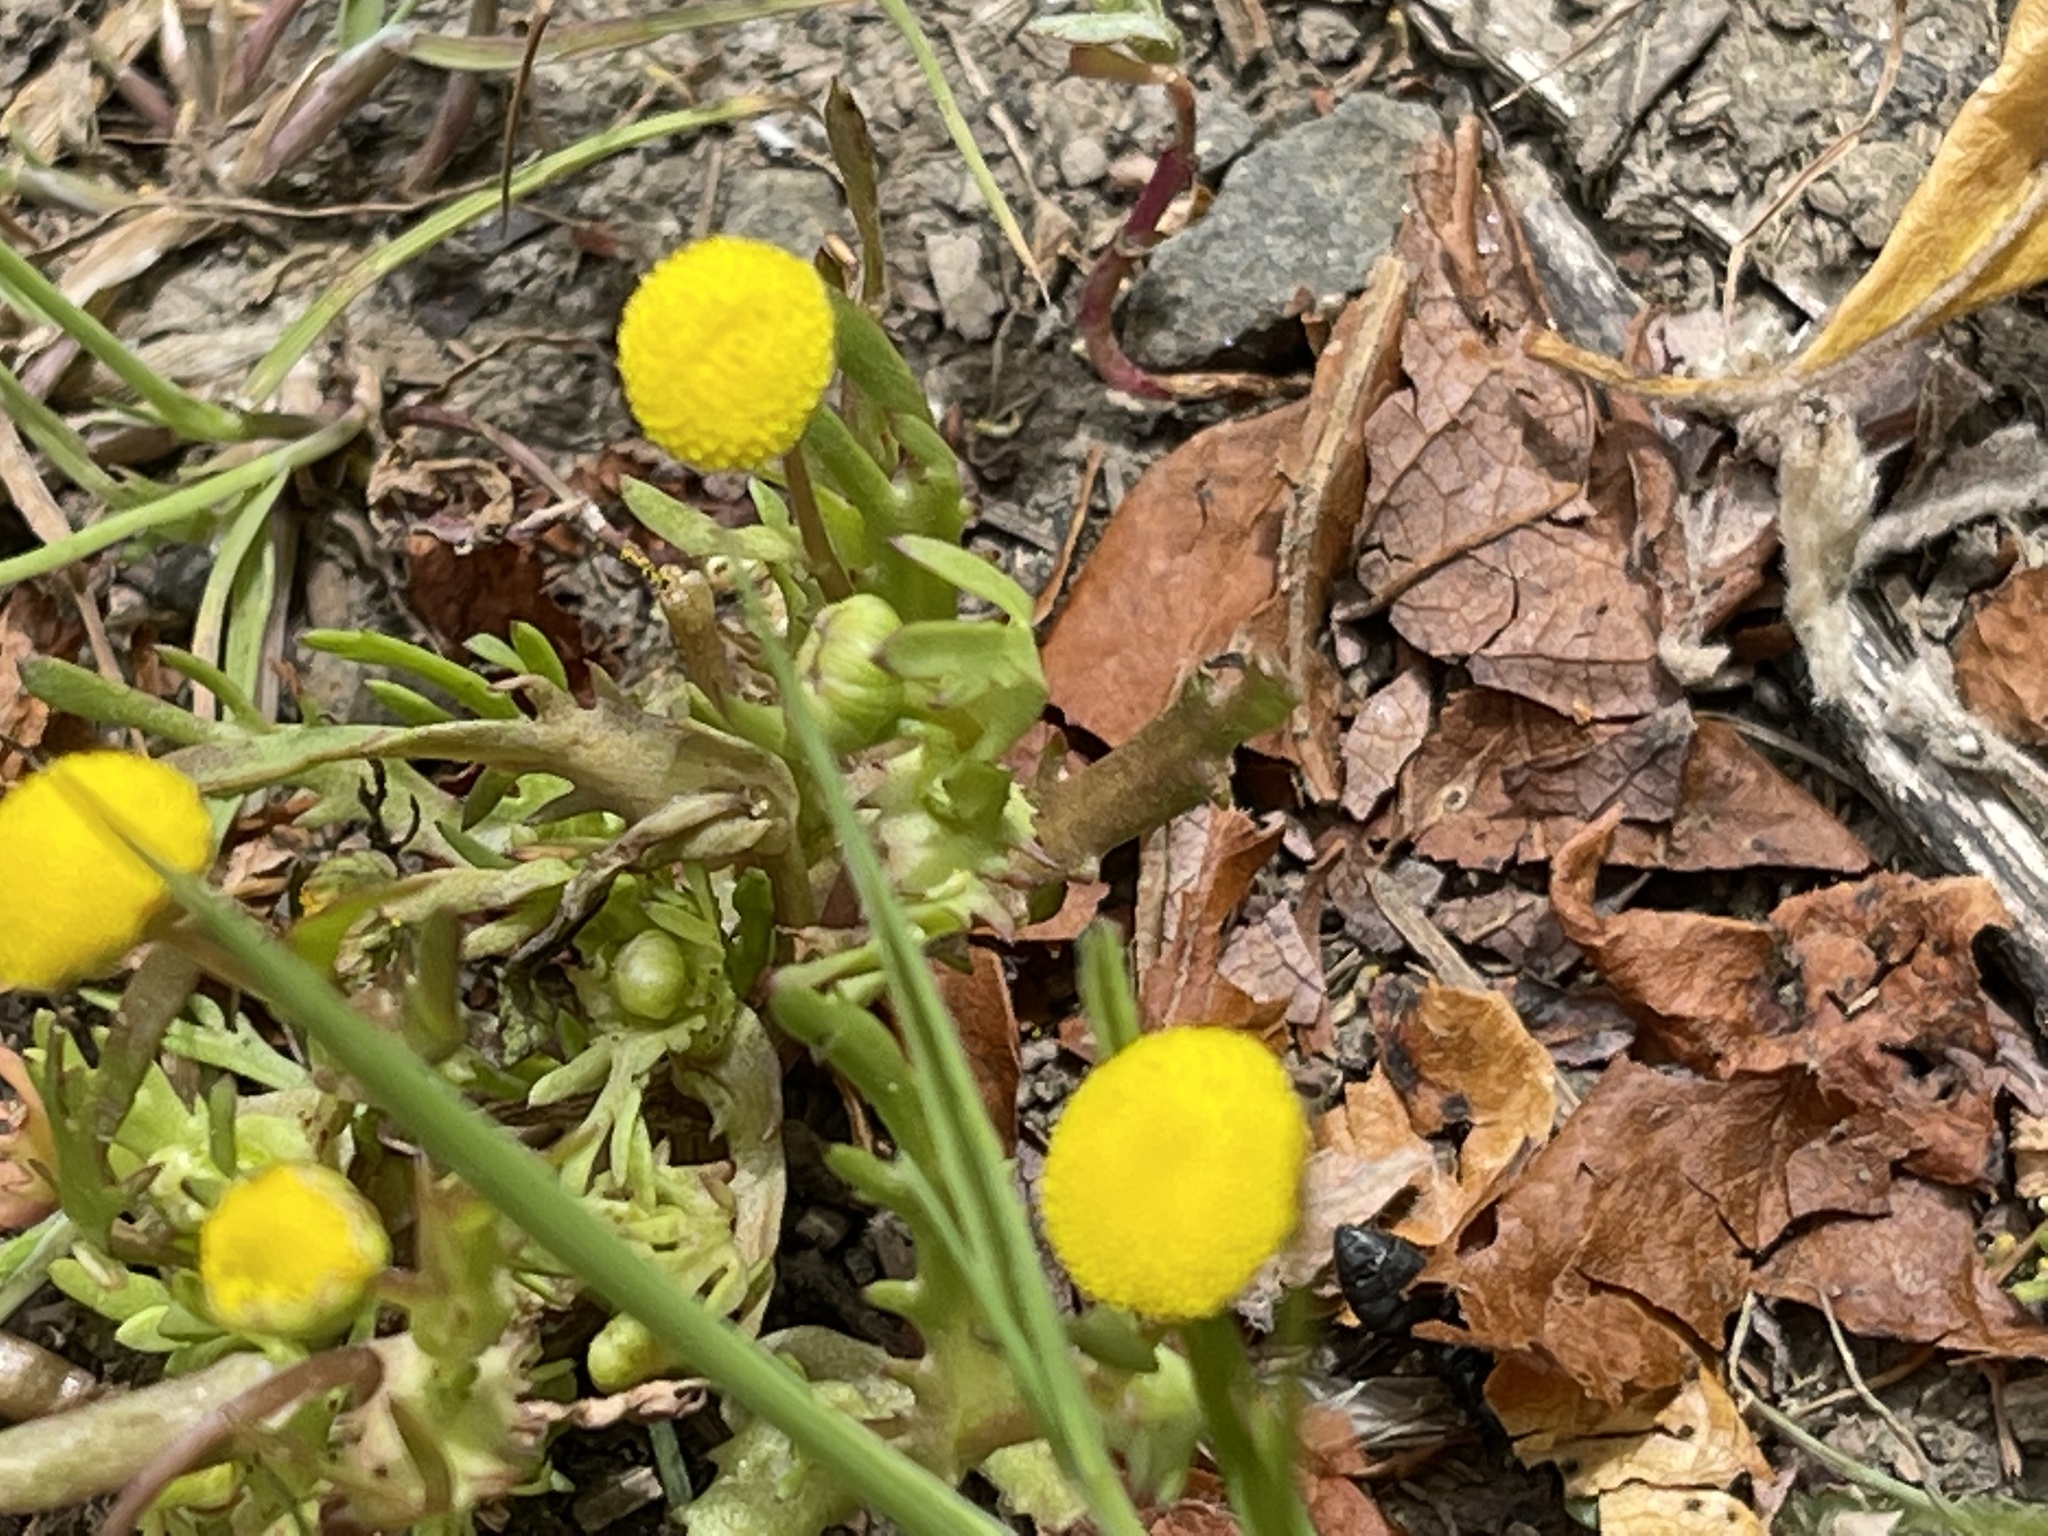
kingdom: Plantae
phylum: Tracheophyta
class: Magnoliopsida
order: Asterales
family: Asteraceae
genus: Cotula
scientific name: Cotula coronopifolia
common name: Buttonweed
